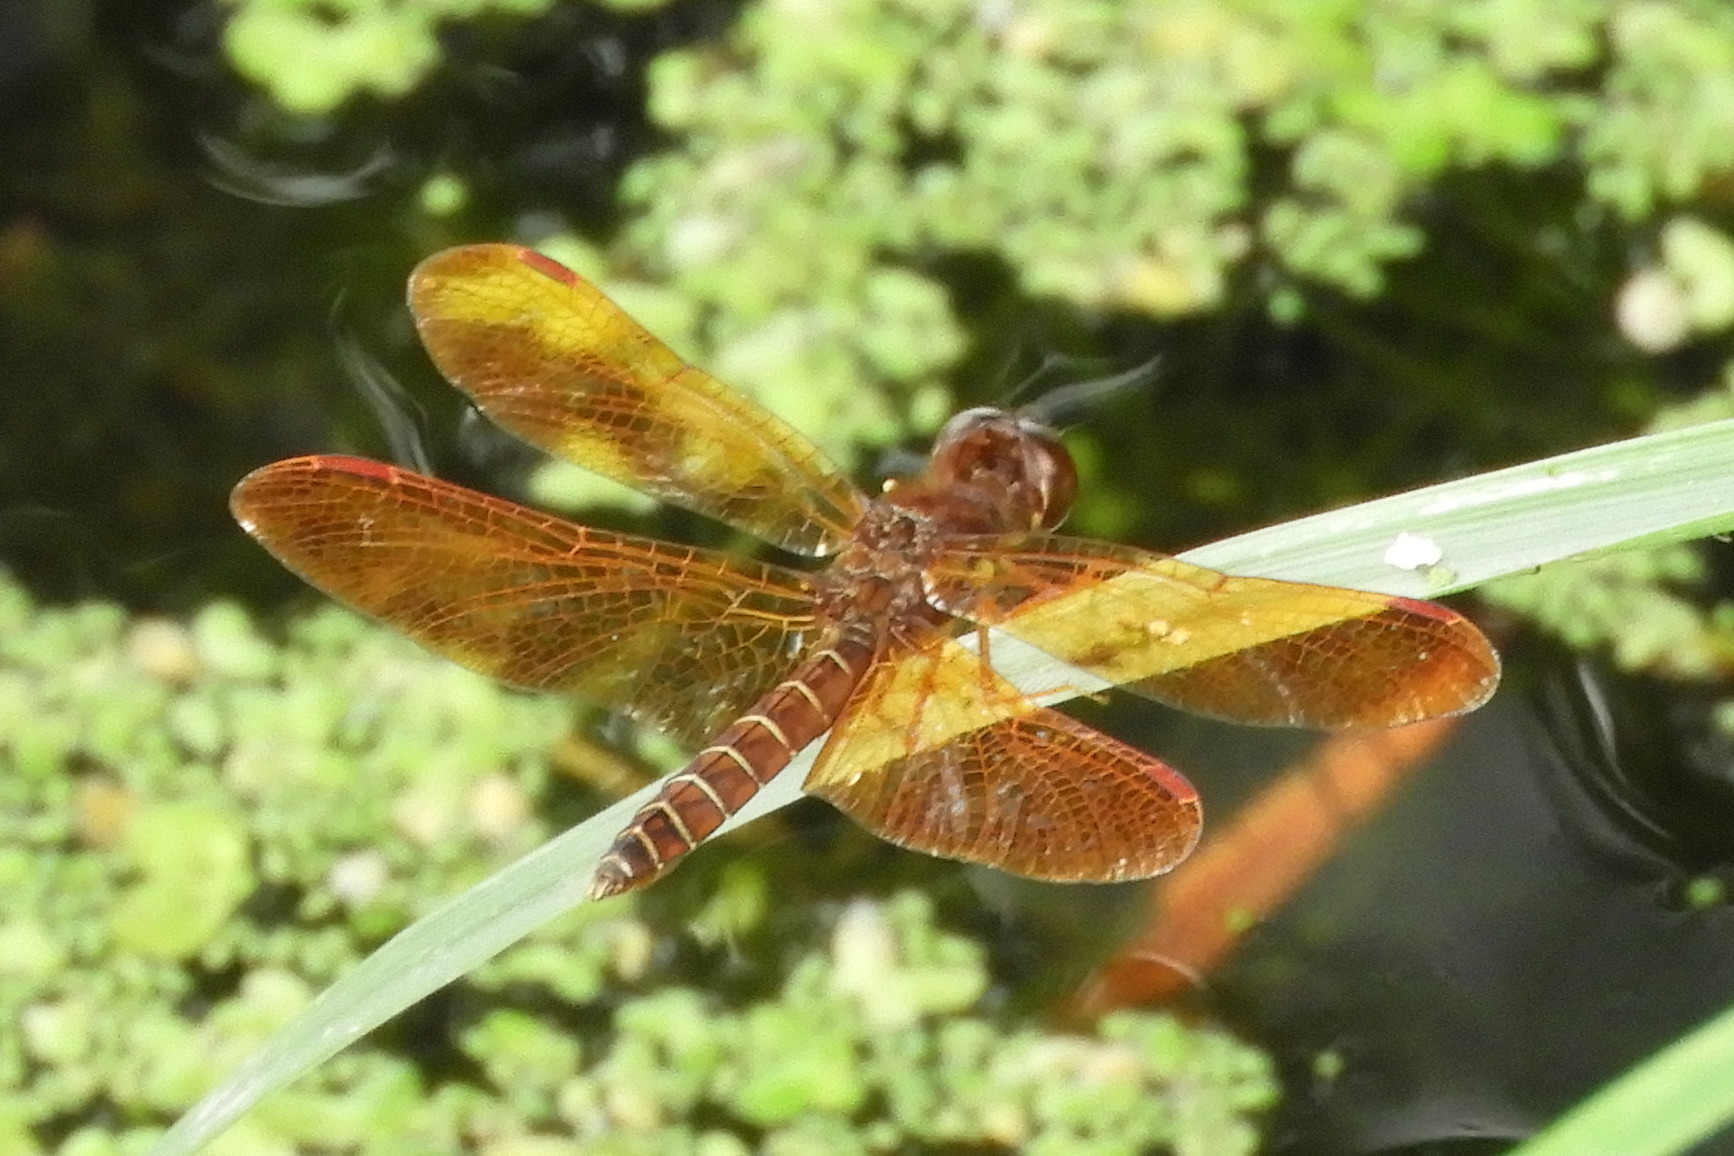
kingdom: Animalia
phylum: Arthropoda
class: Insecta
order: Odonata
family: Libellulidae
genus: Perithemis
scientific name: Perithemis tenera
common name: Eastern amberwing
